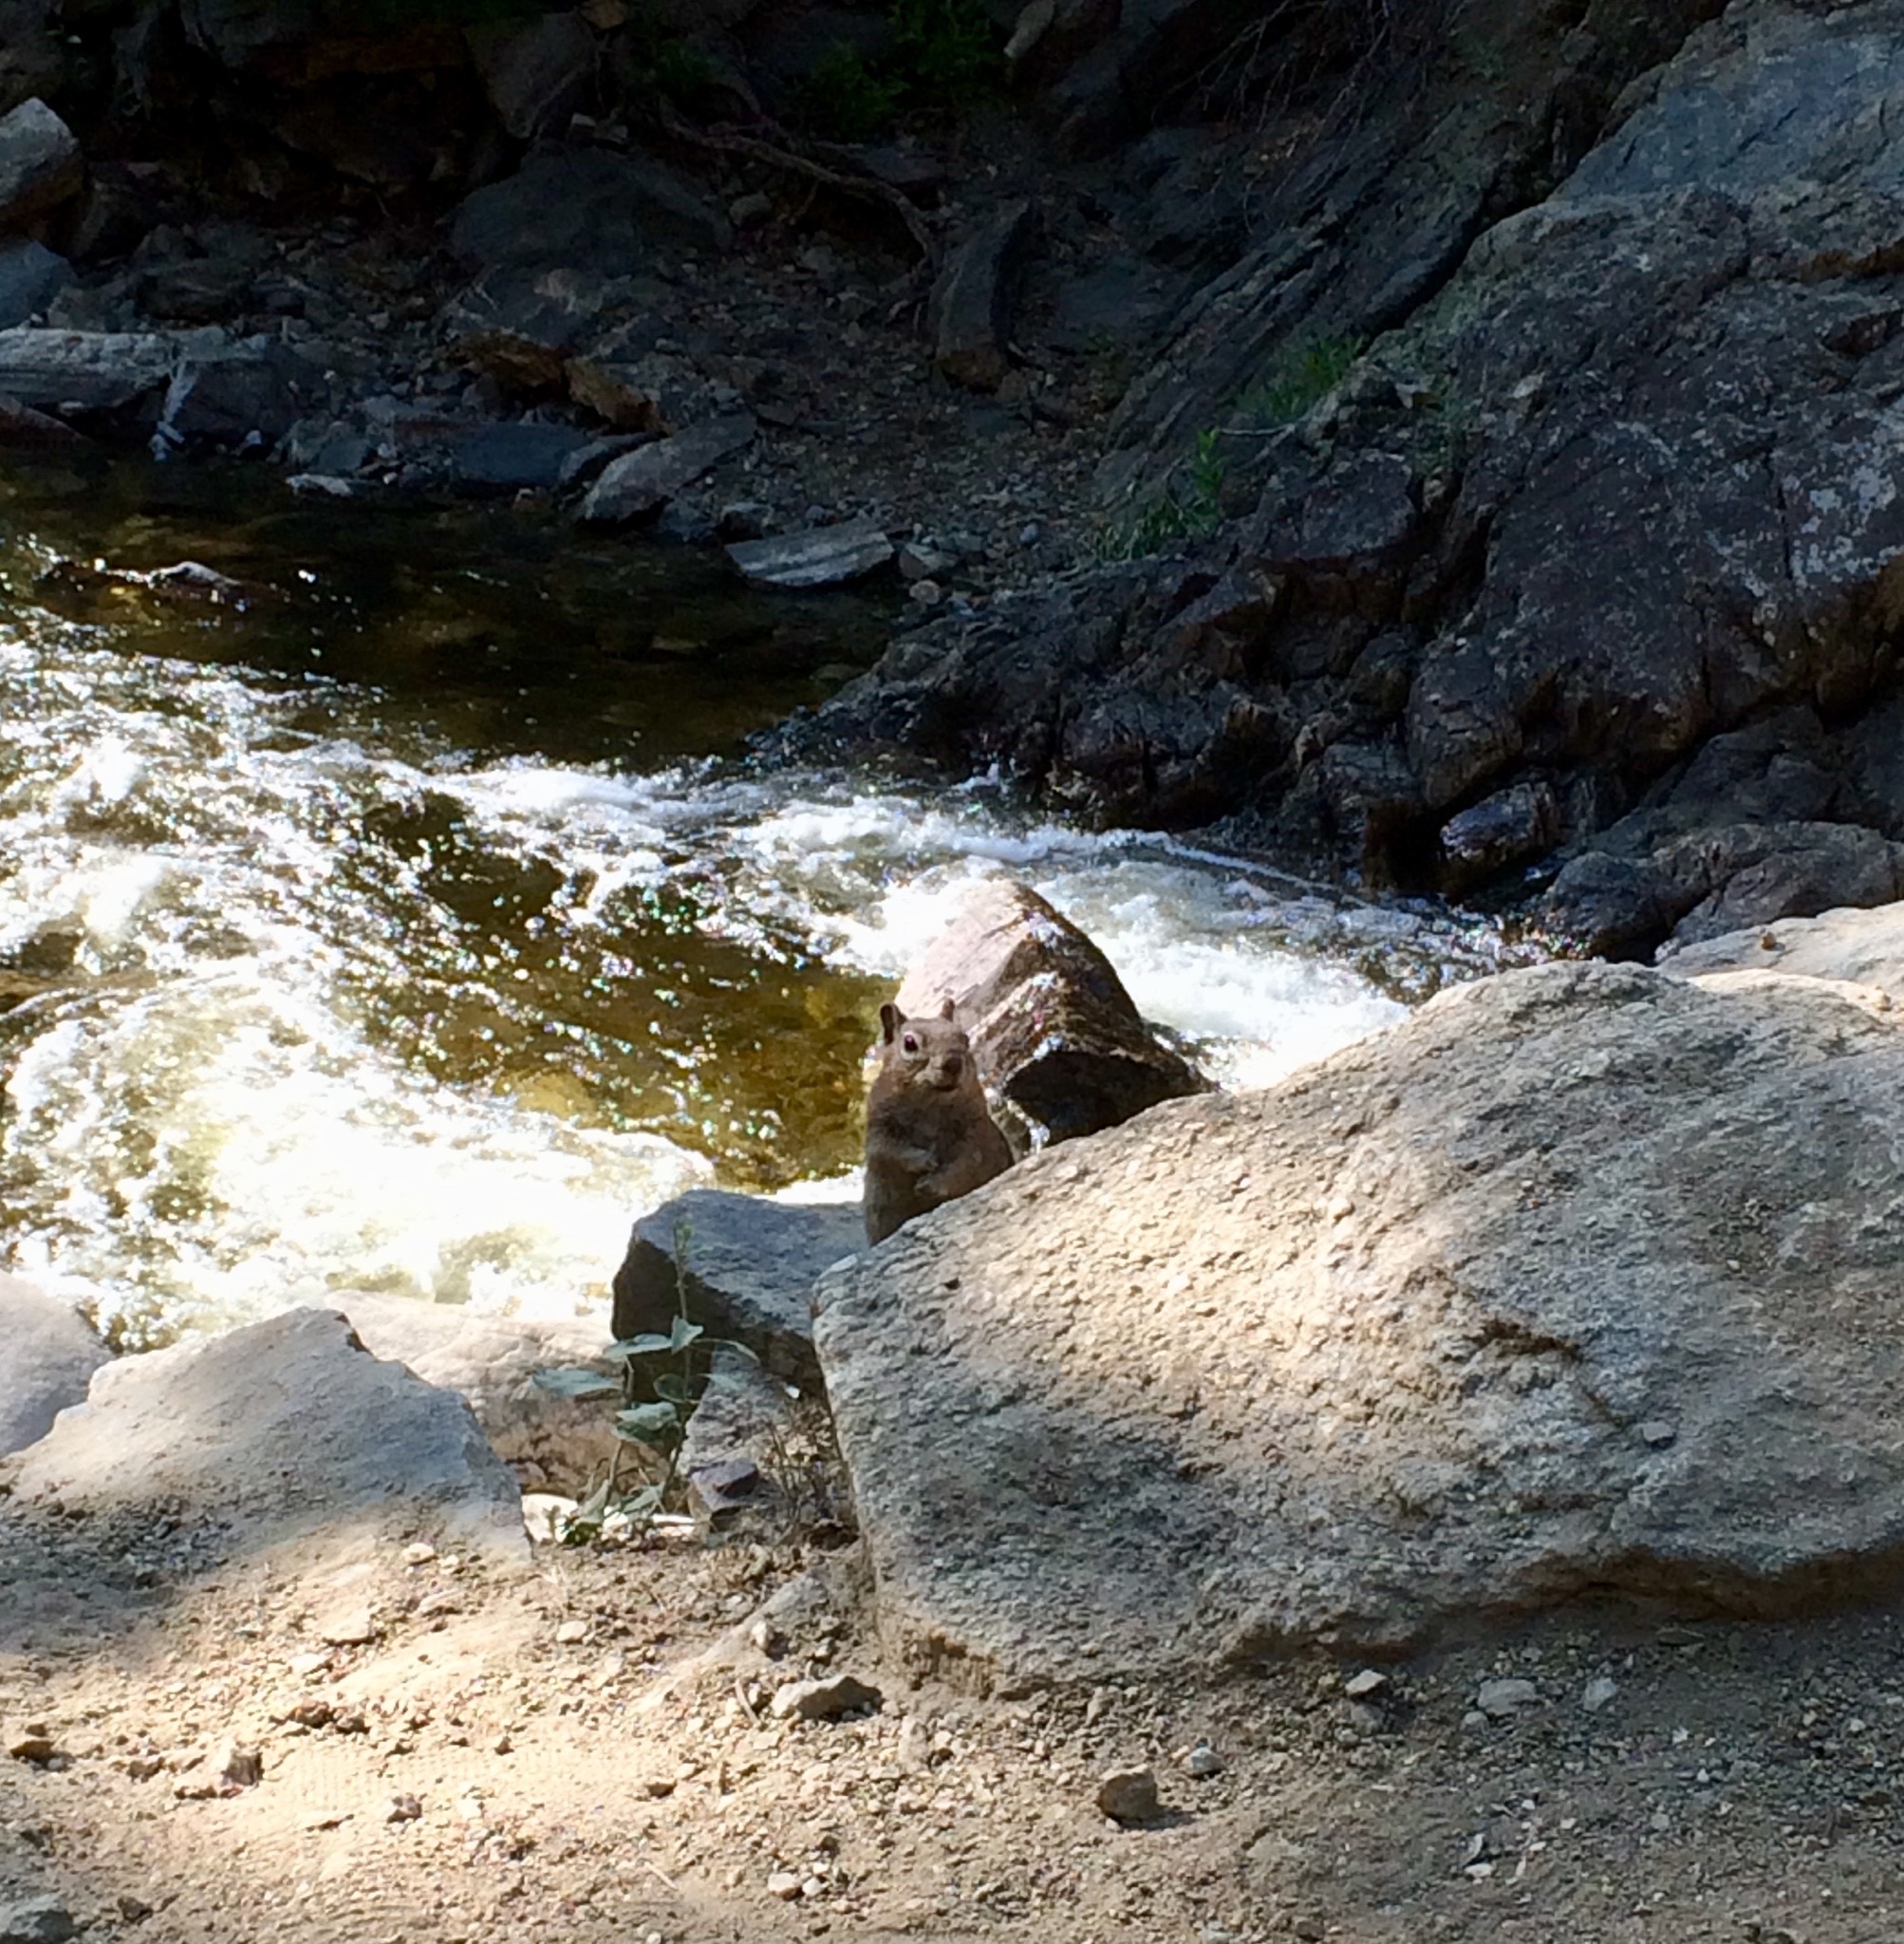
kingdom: Animalia
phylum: Chordata
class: Mammalia
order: Rodentia
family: Sciuridae
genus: Callospermophilus
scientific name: Callospermophilus lateralis
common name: Golden-mantled ground squirrel
